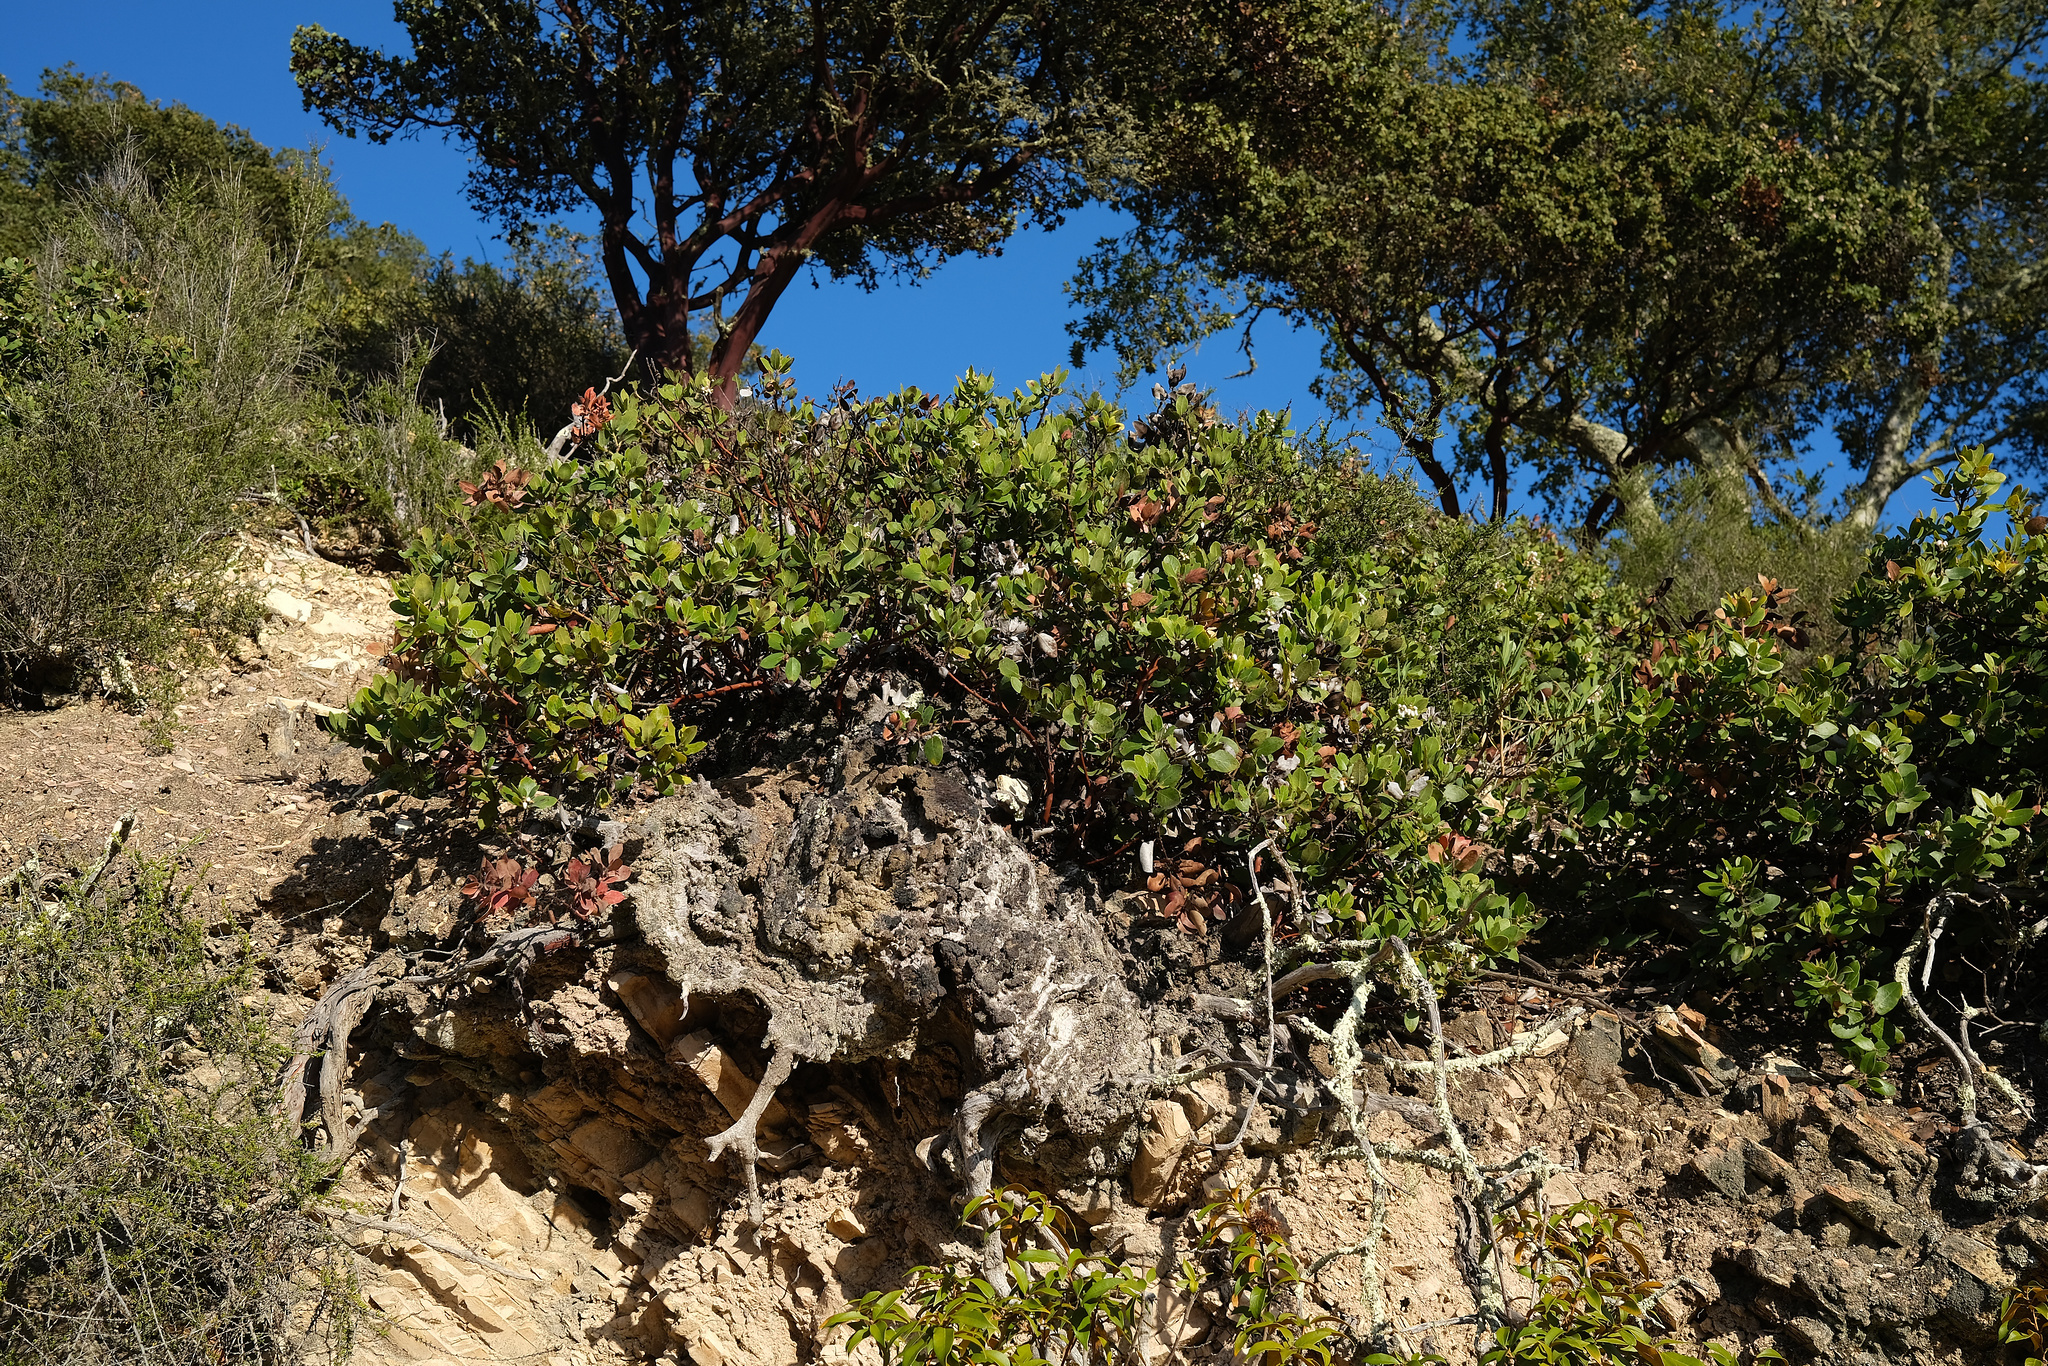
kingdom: Plantae
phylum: Tracheophyta
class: Magnoliopsida
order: Ericales
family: Ericaceae
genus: Arctostaphylos
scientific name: Arctostaphylos crustacea
